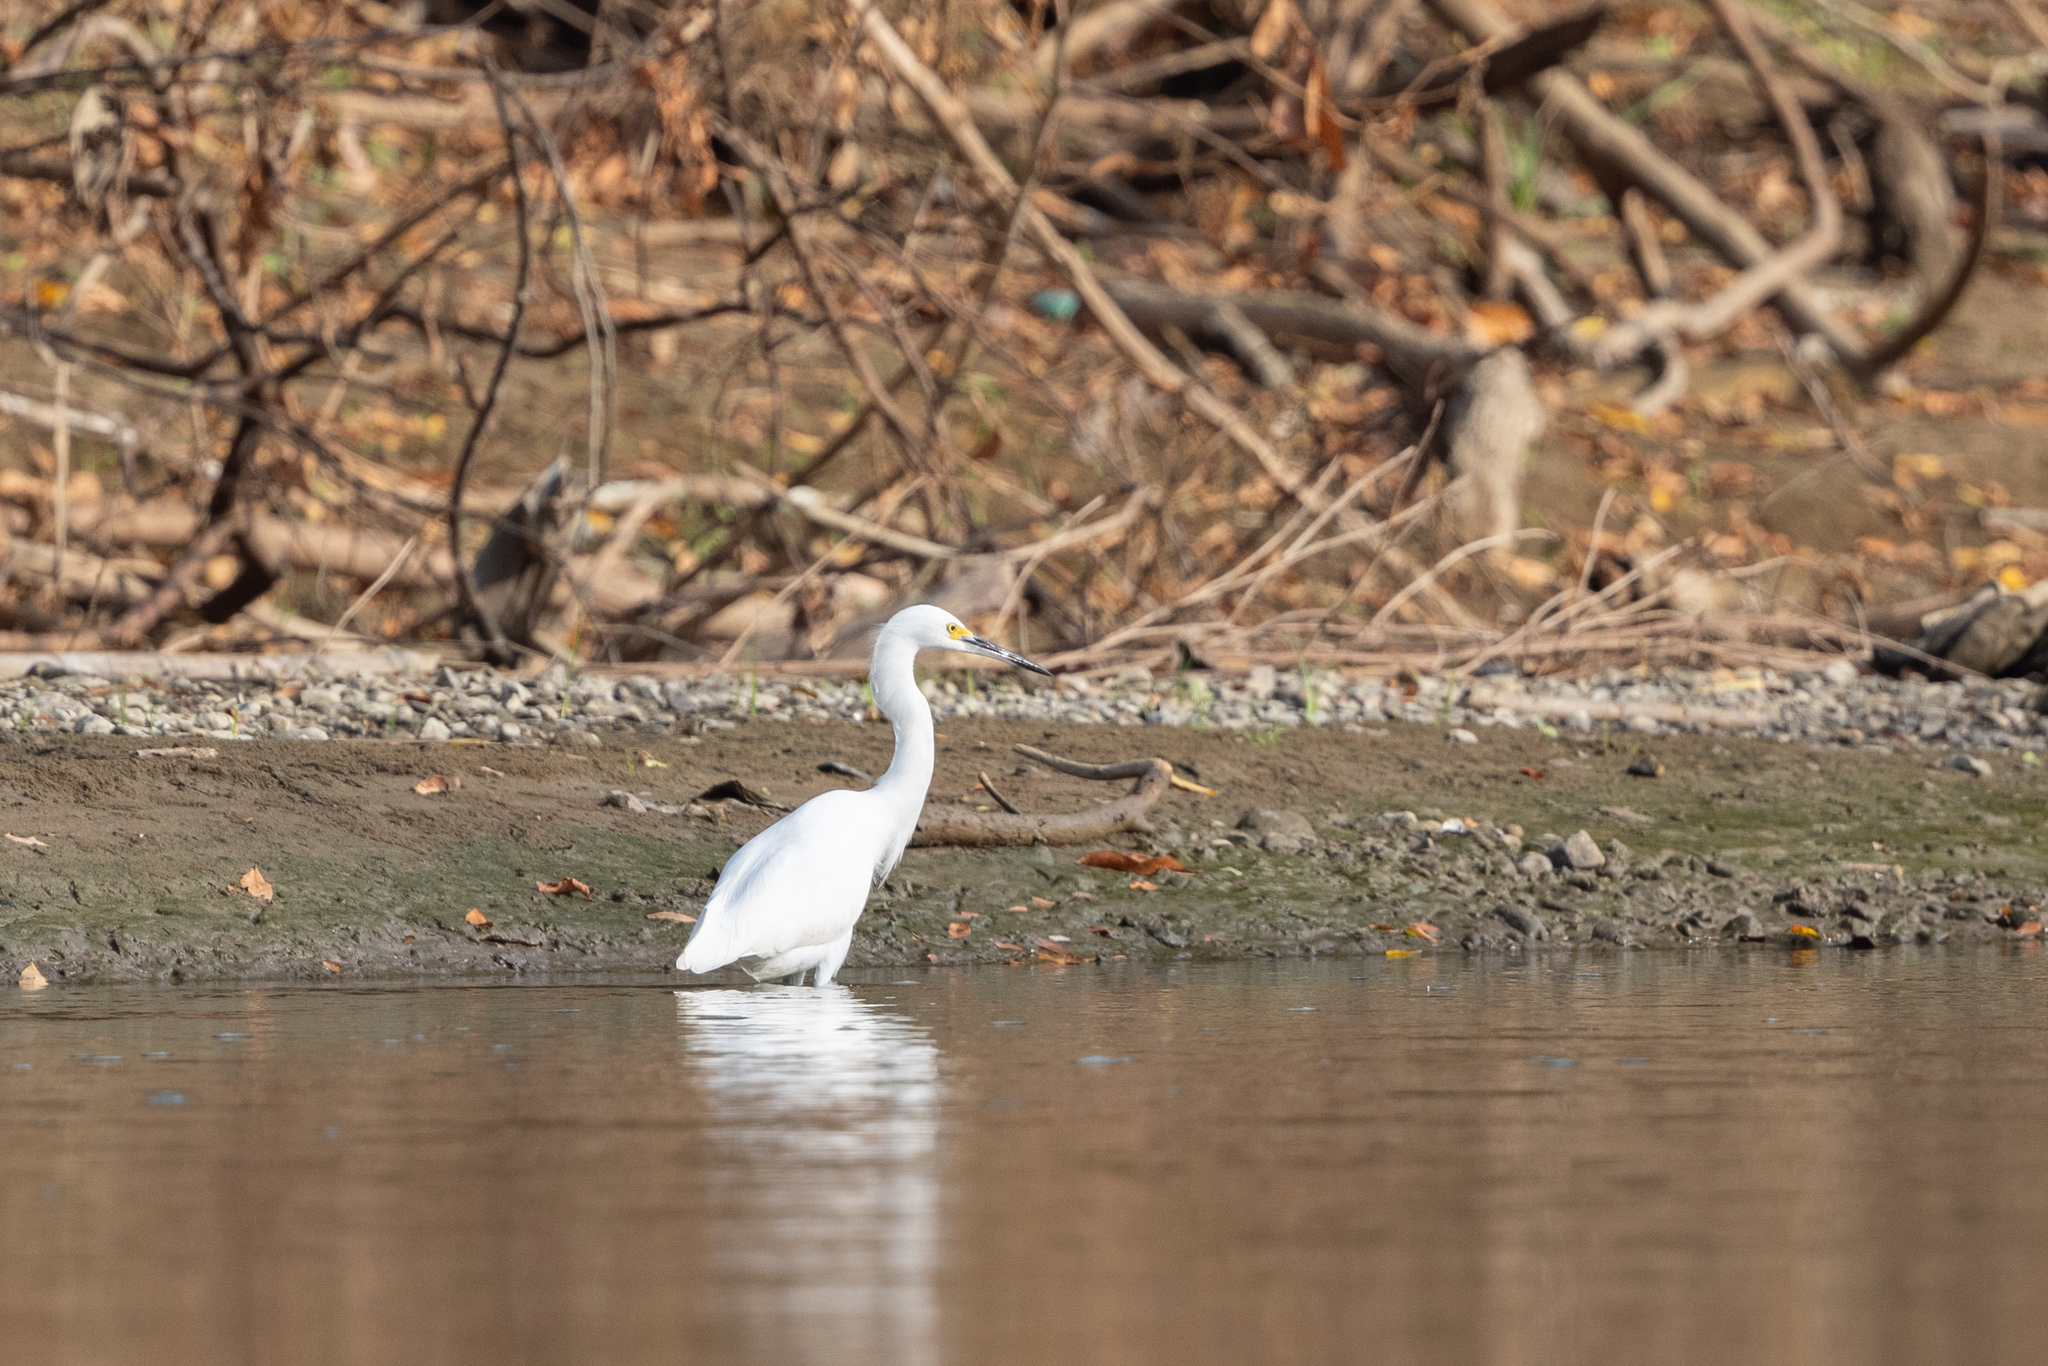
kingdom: Animalia
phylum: Chordata
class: Aves
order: Pelecaniformes
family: Ardeidae
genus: Egretta
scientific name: Egretta thula
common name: Snowy egret
